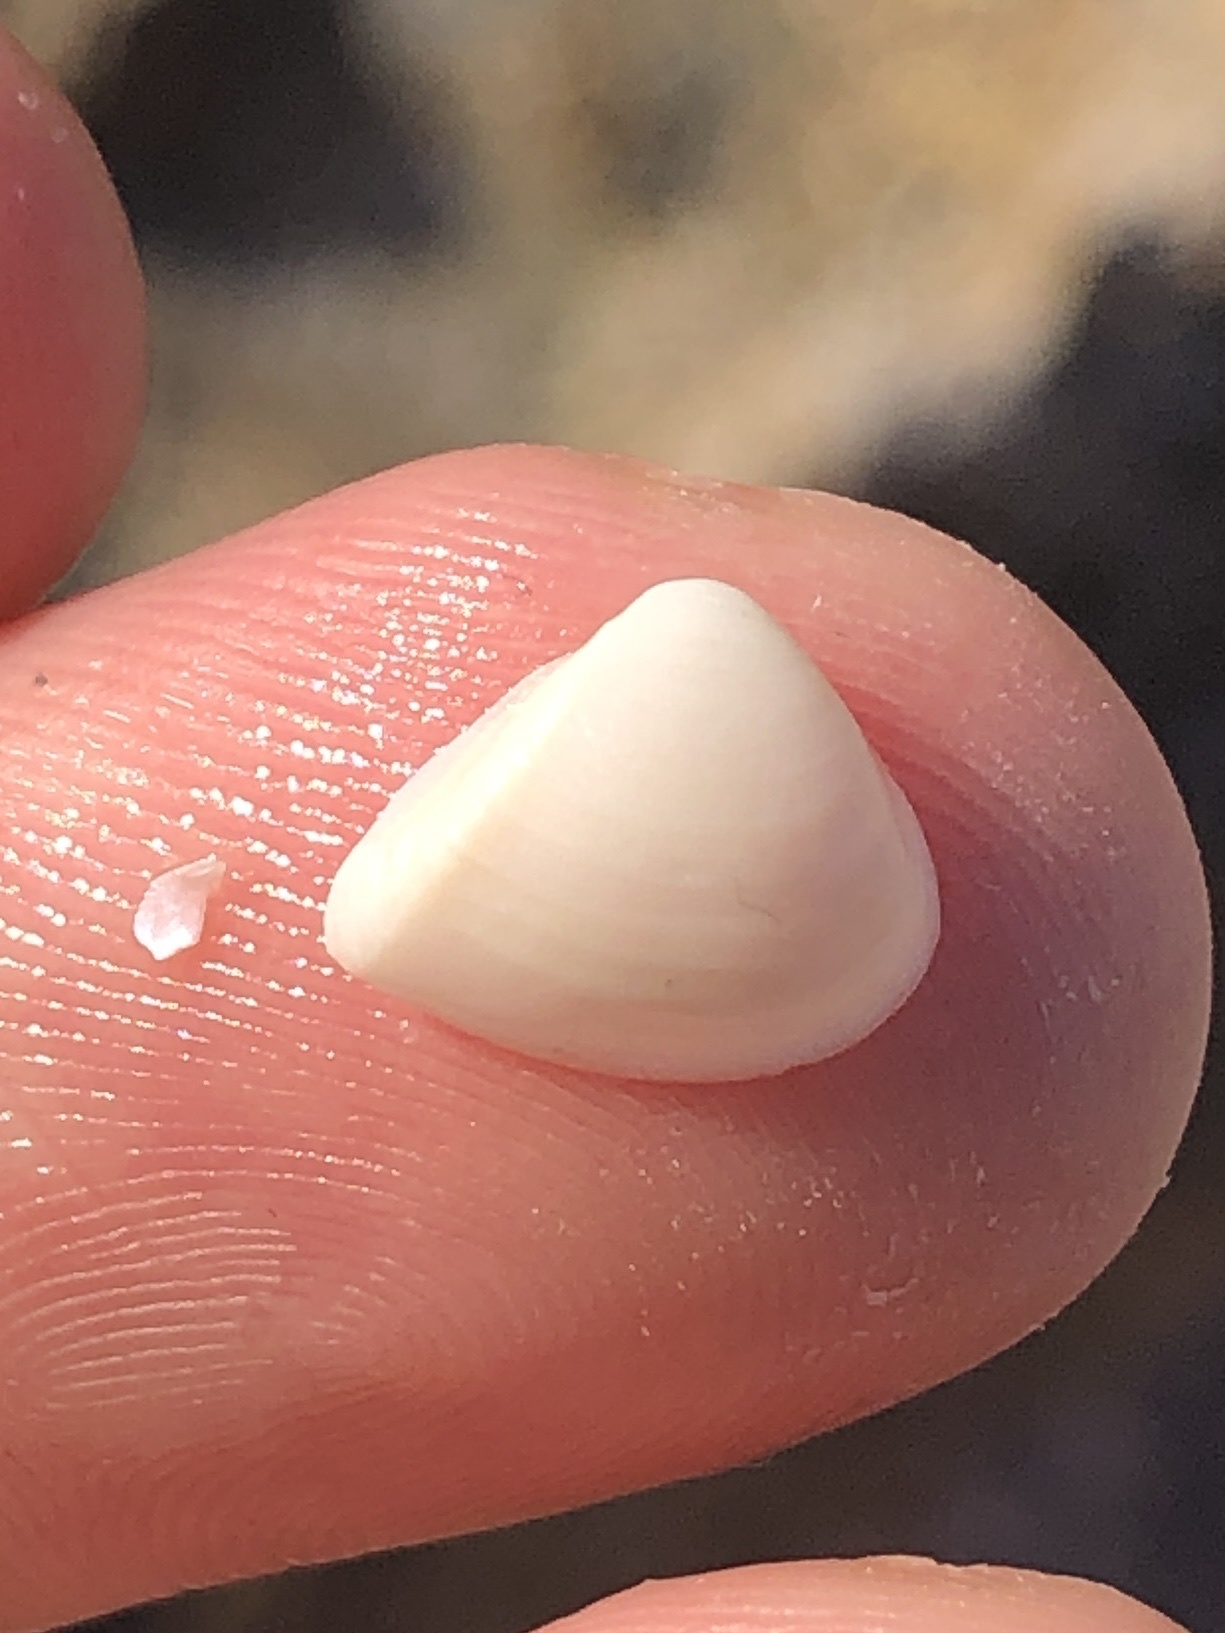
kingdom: Animalia
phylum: Mollusca
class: Bivalvia
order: Venerida
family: Mactridae
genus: Mulinia
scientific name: Mulinia lateralis
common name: Dwarf surfclam
